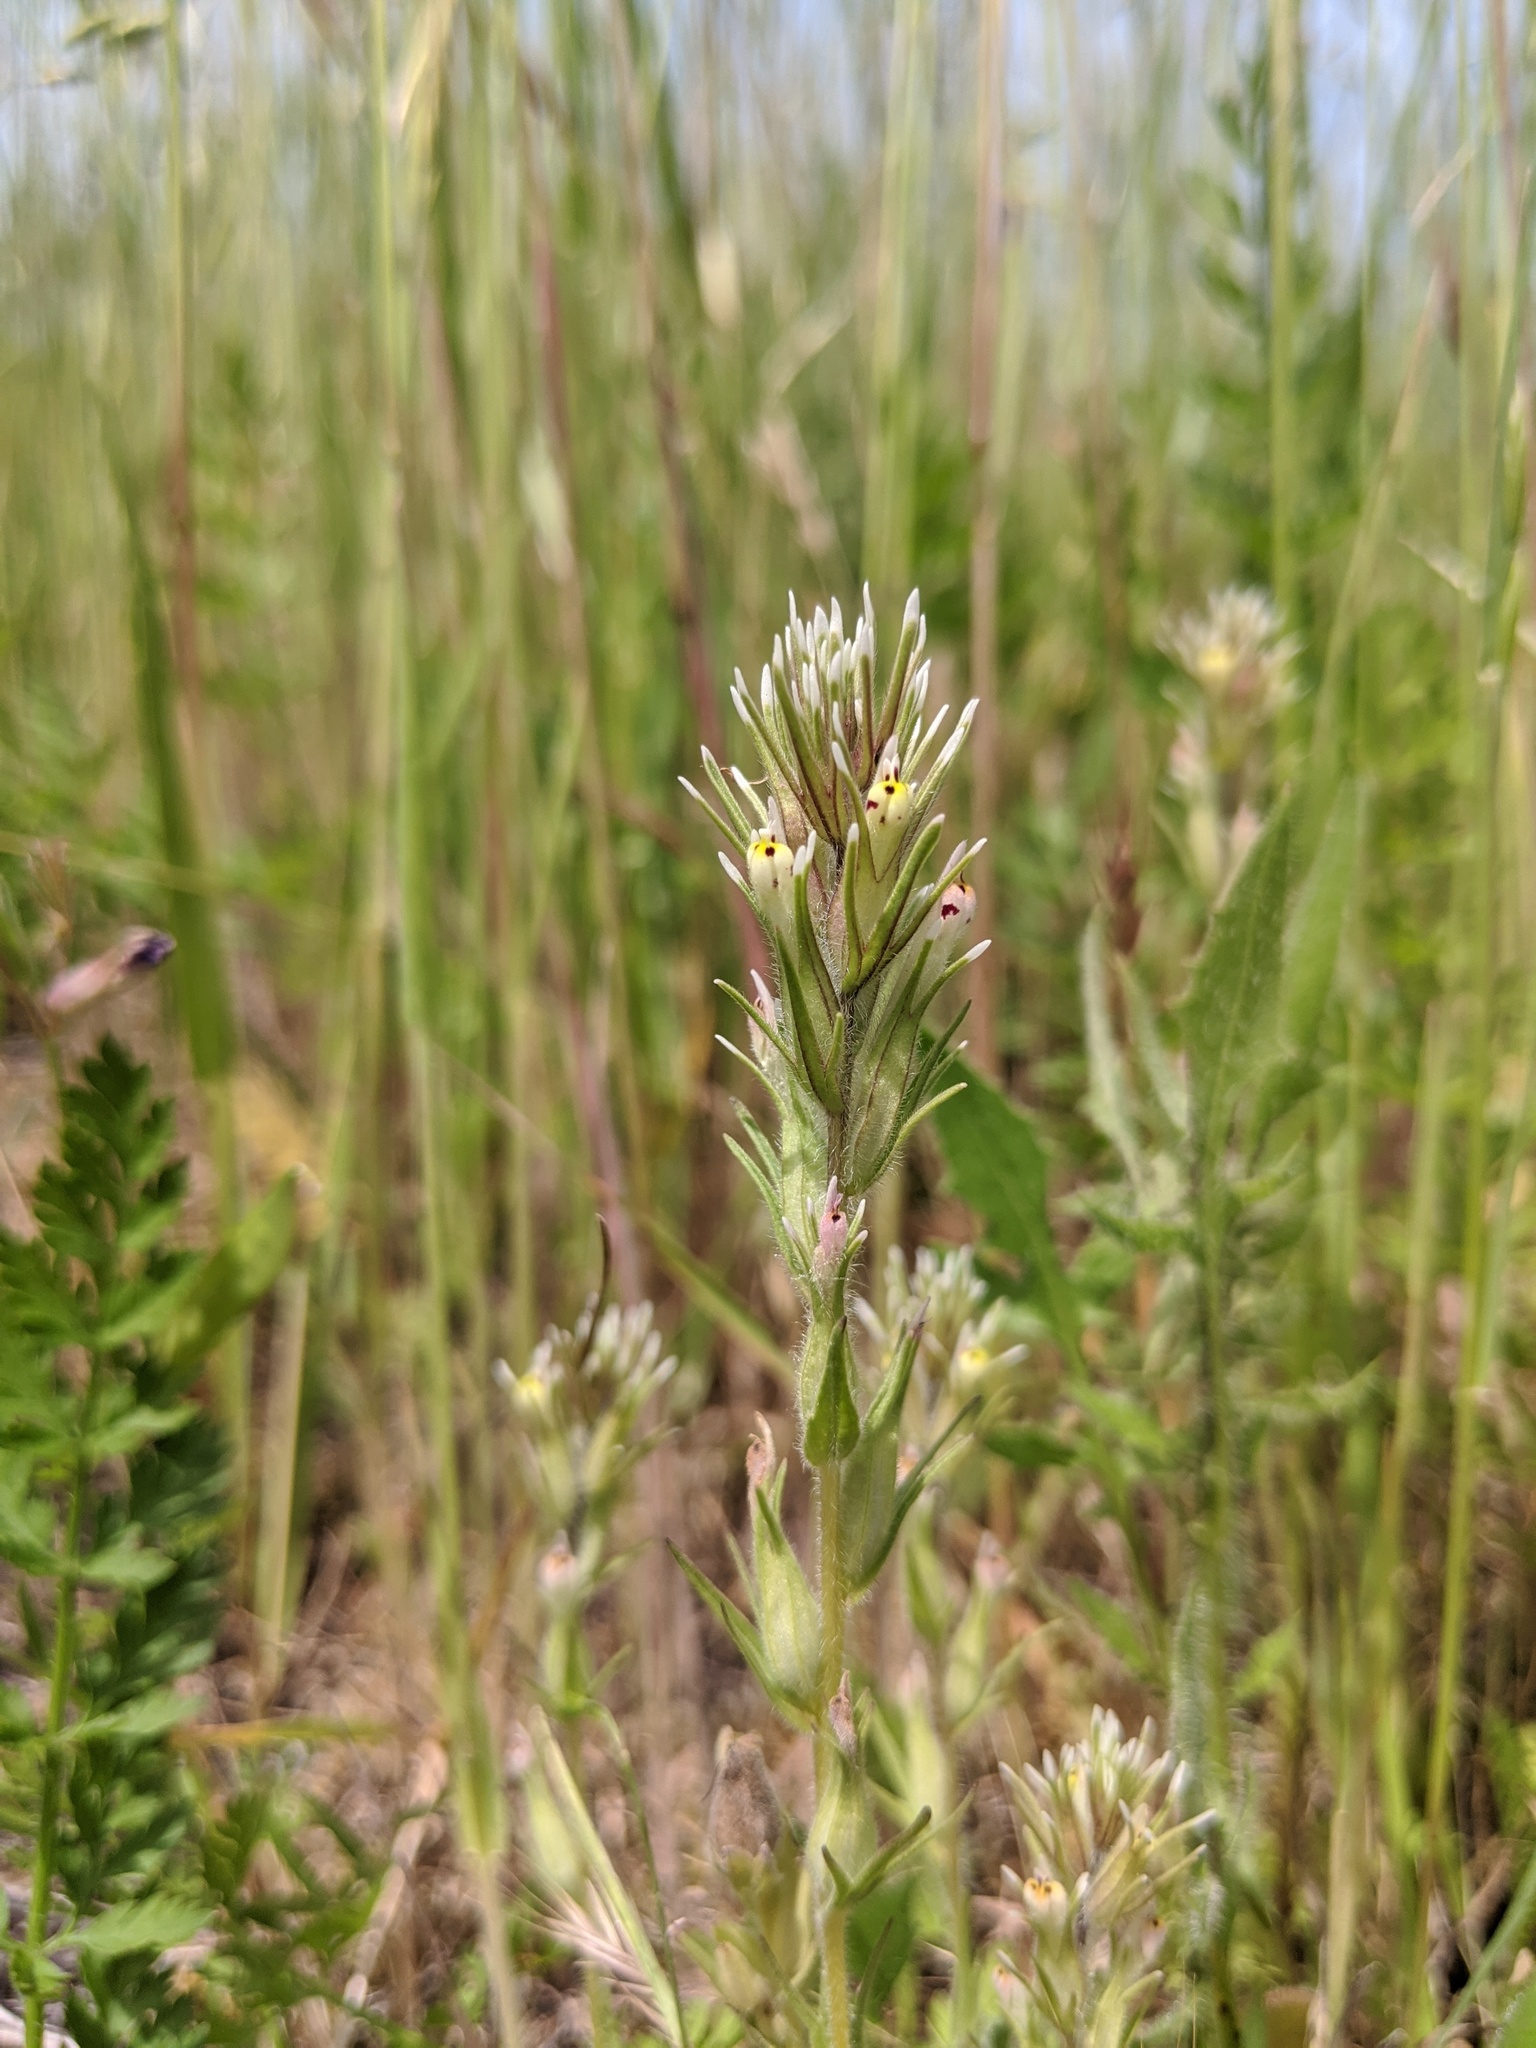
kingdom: Plantae
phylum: Tracheophyta
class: Magnoliopsida
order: Lamiales
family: Orobanchaceae
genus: Castilleja
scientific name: Castilleja attenuata
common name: Valley tassels
